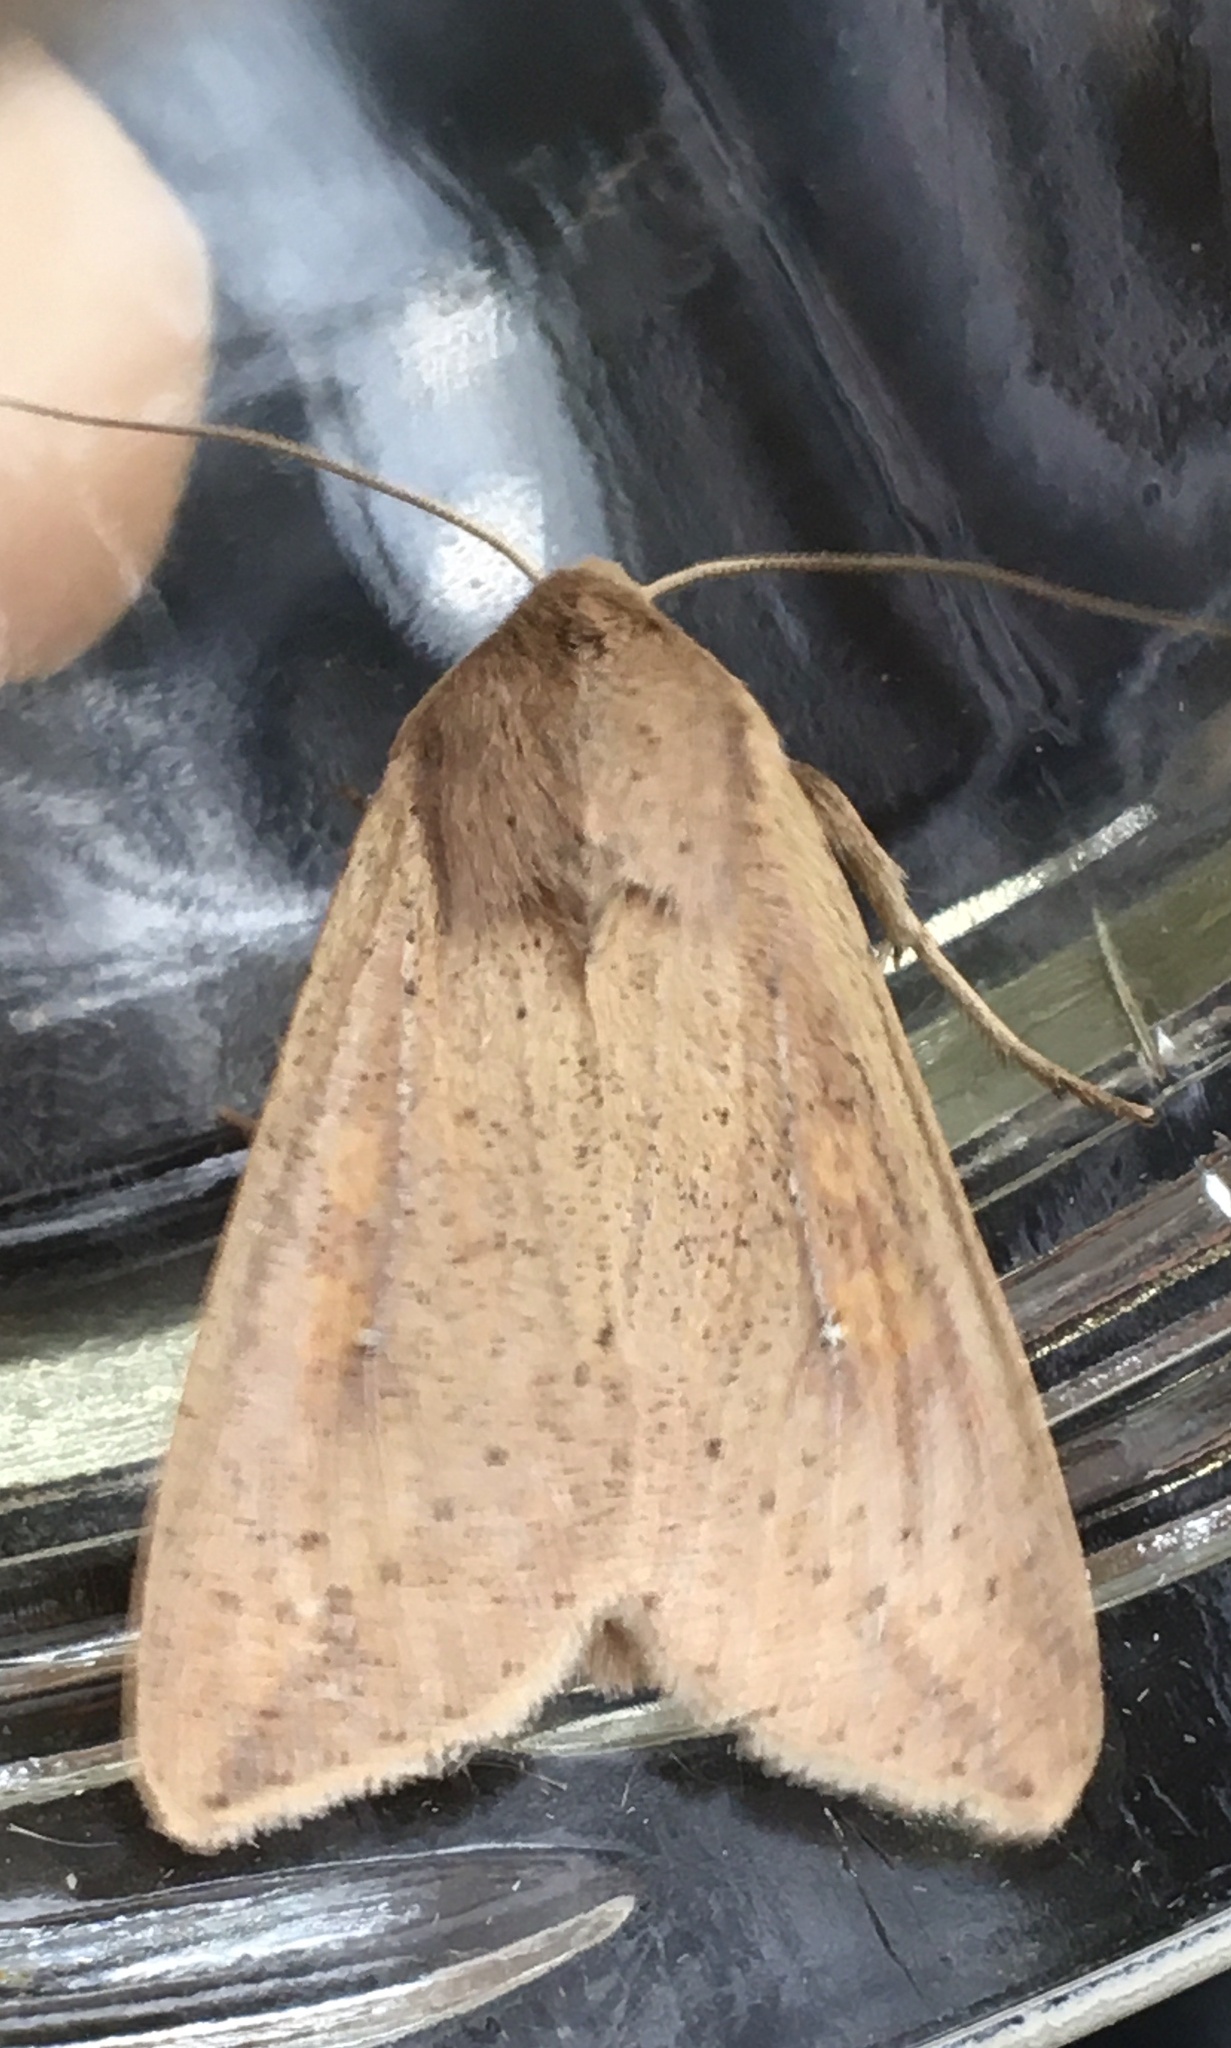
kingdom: Animalia
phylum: Arthropoda
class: Insecta
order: Lepidoptera
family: Noctuidae
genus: Mythimna
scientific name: Mythimna unipuncta
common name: White-speck
